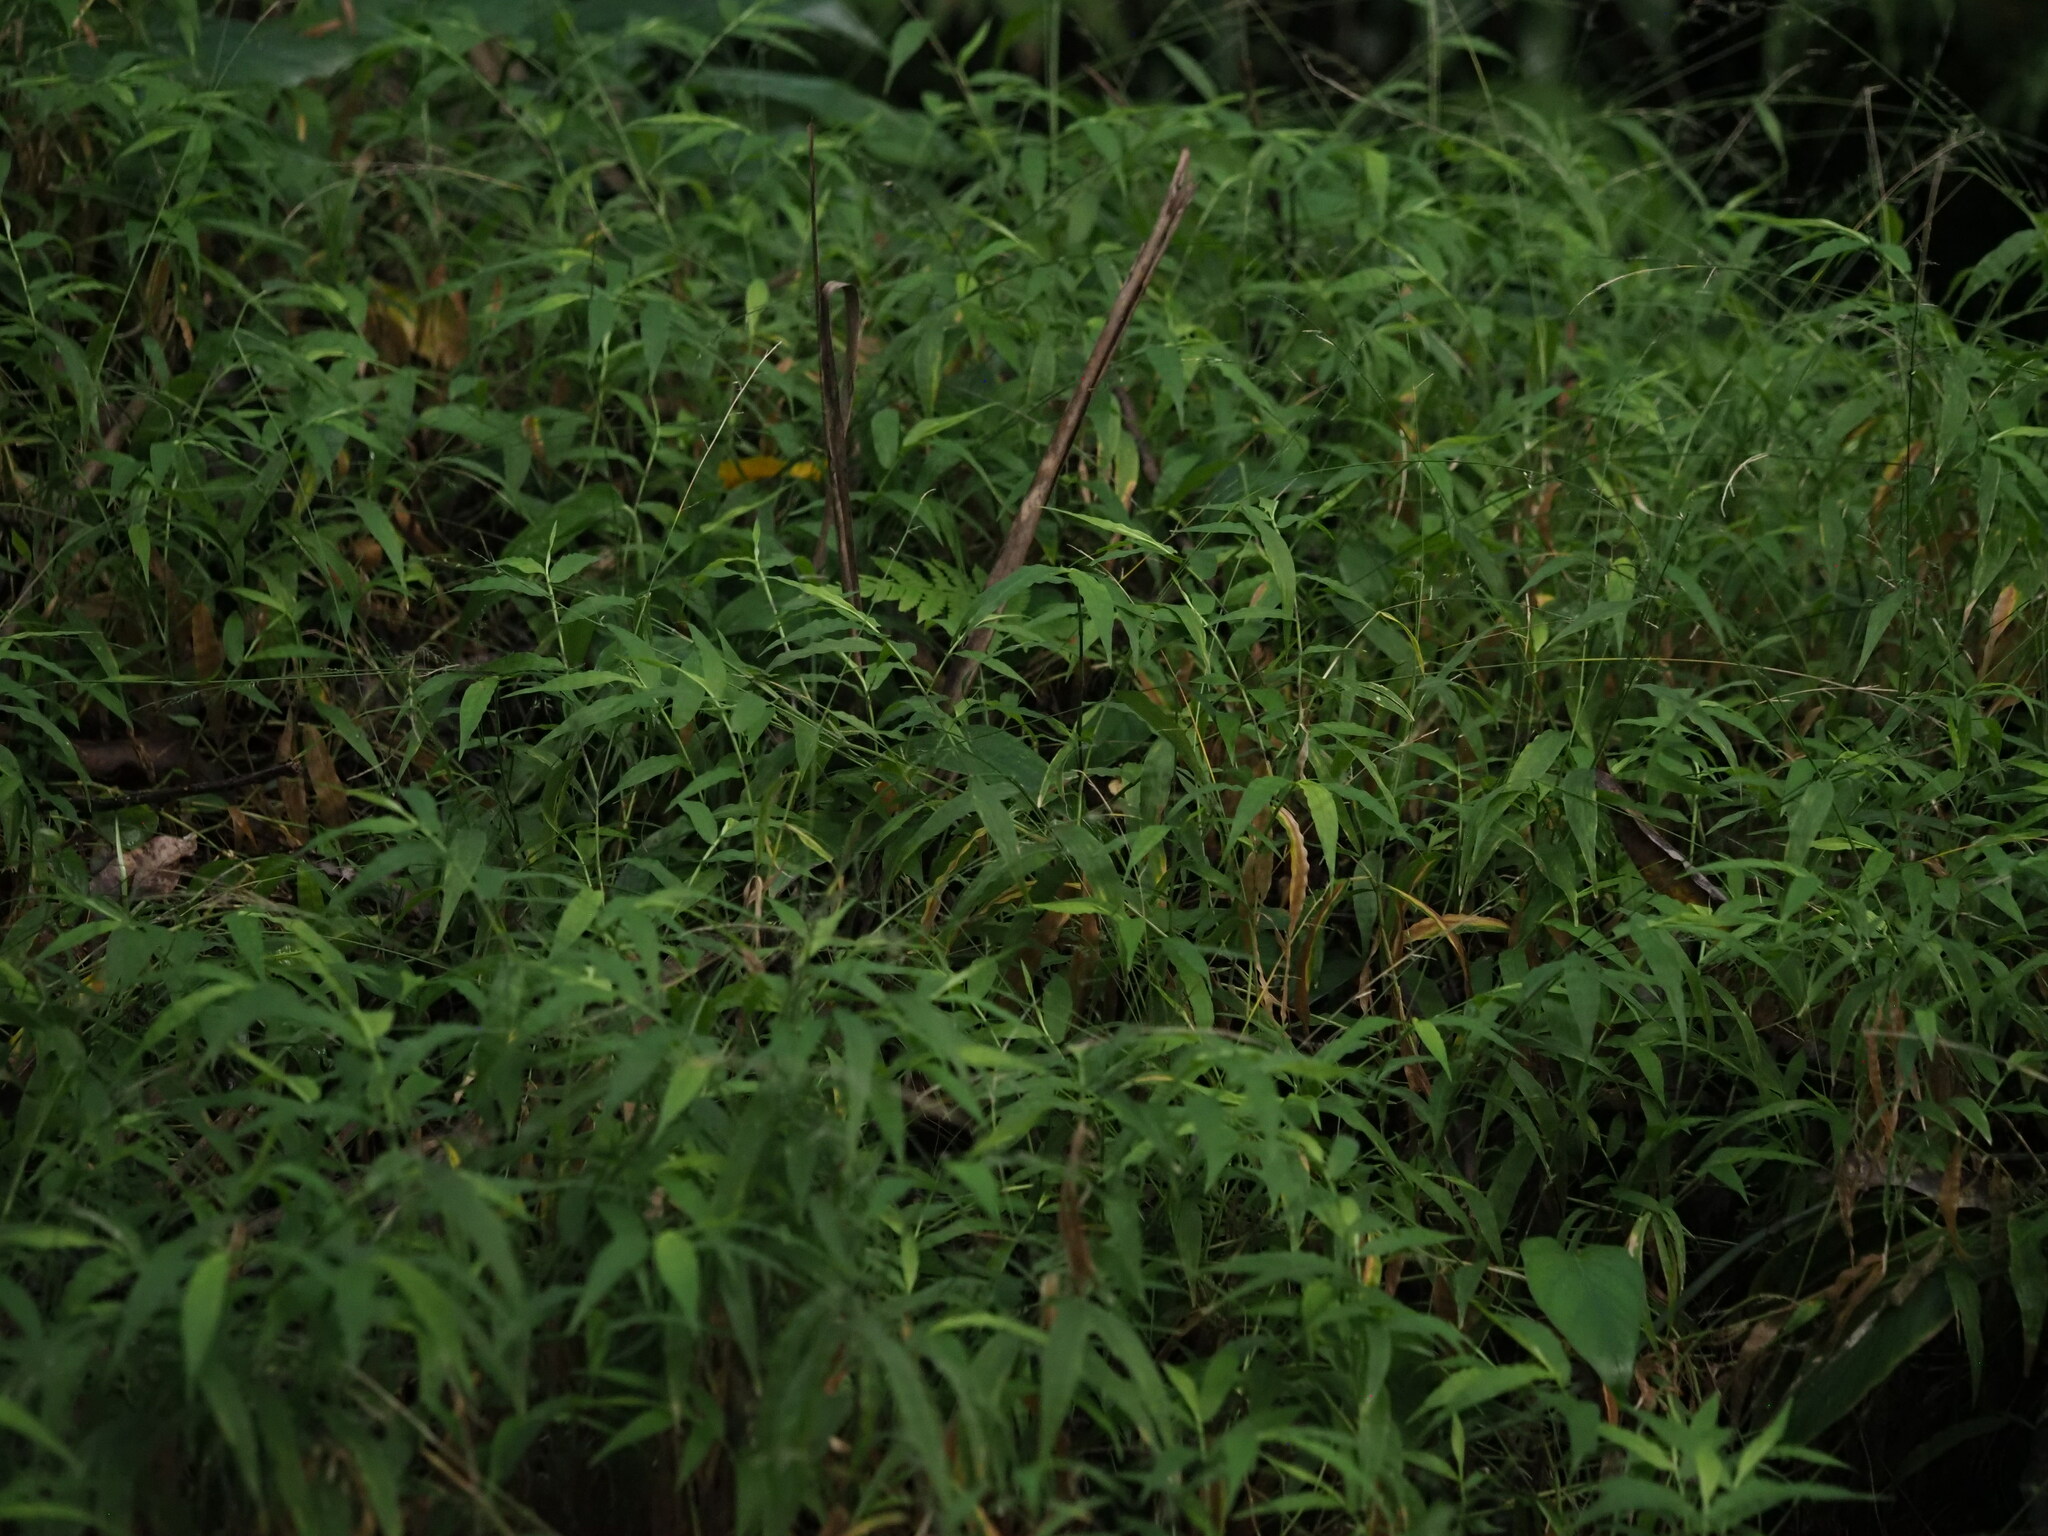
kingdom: Plantae
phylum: Tracheophyta
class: Liliopsida
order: Poales
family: Poaceae
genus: Oplismenus
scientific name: Oplismenus hirtellus
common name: Basketgrass
